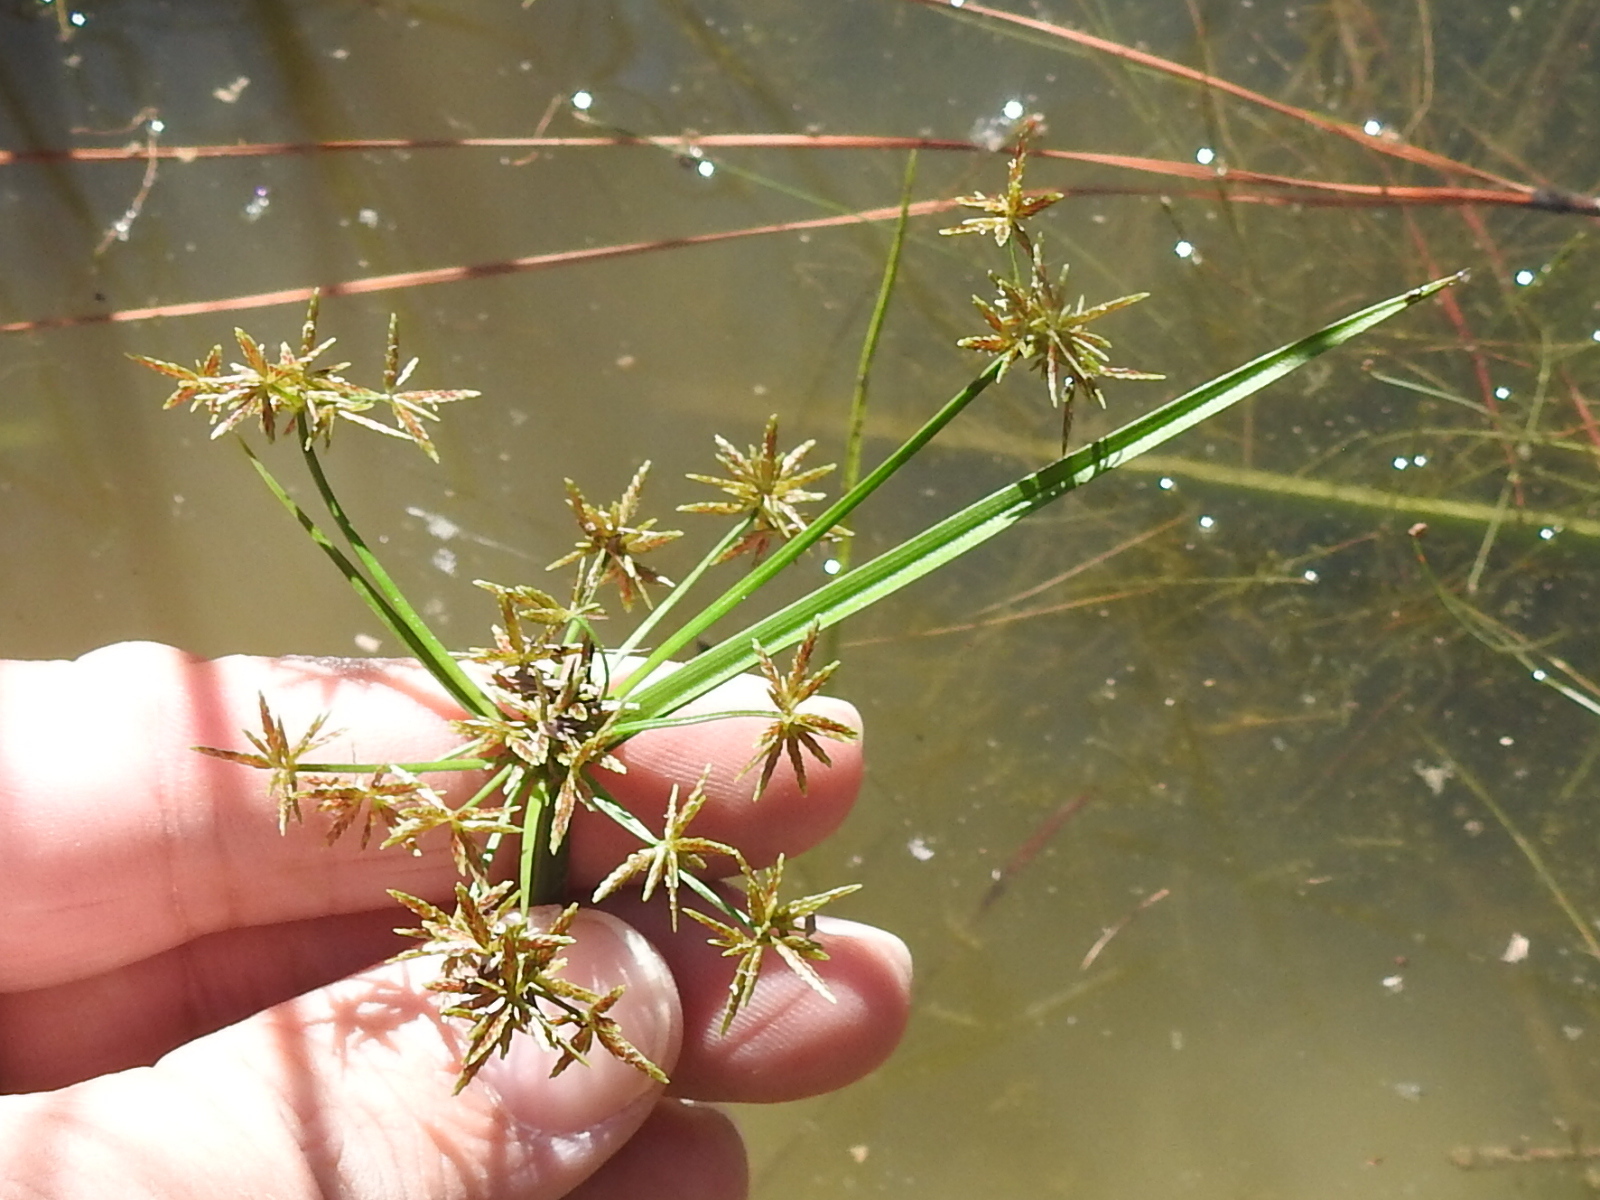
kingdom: Plantae
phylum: Tracheophyta
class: Liliopsida
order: Poales
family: Cyperaceae
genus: Cyperus
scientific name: Cyperus haspan
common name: Haspan flatsedge
